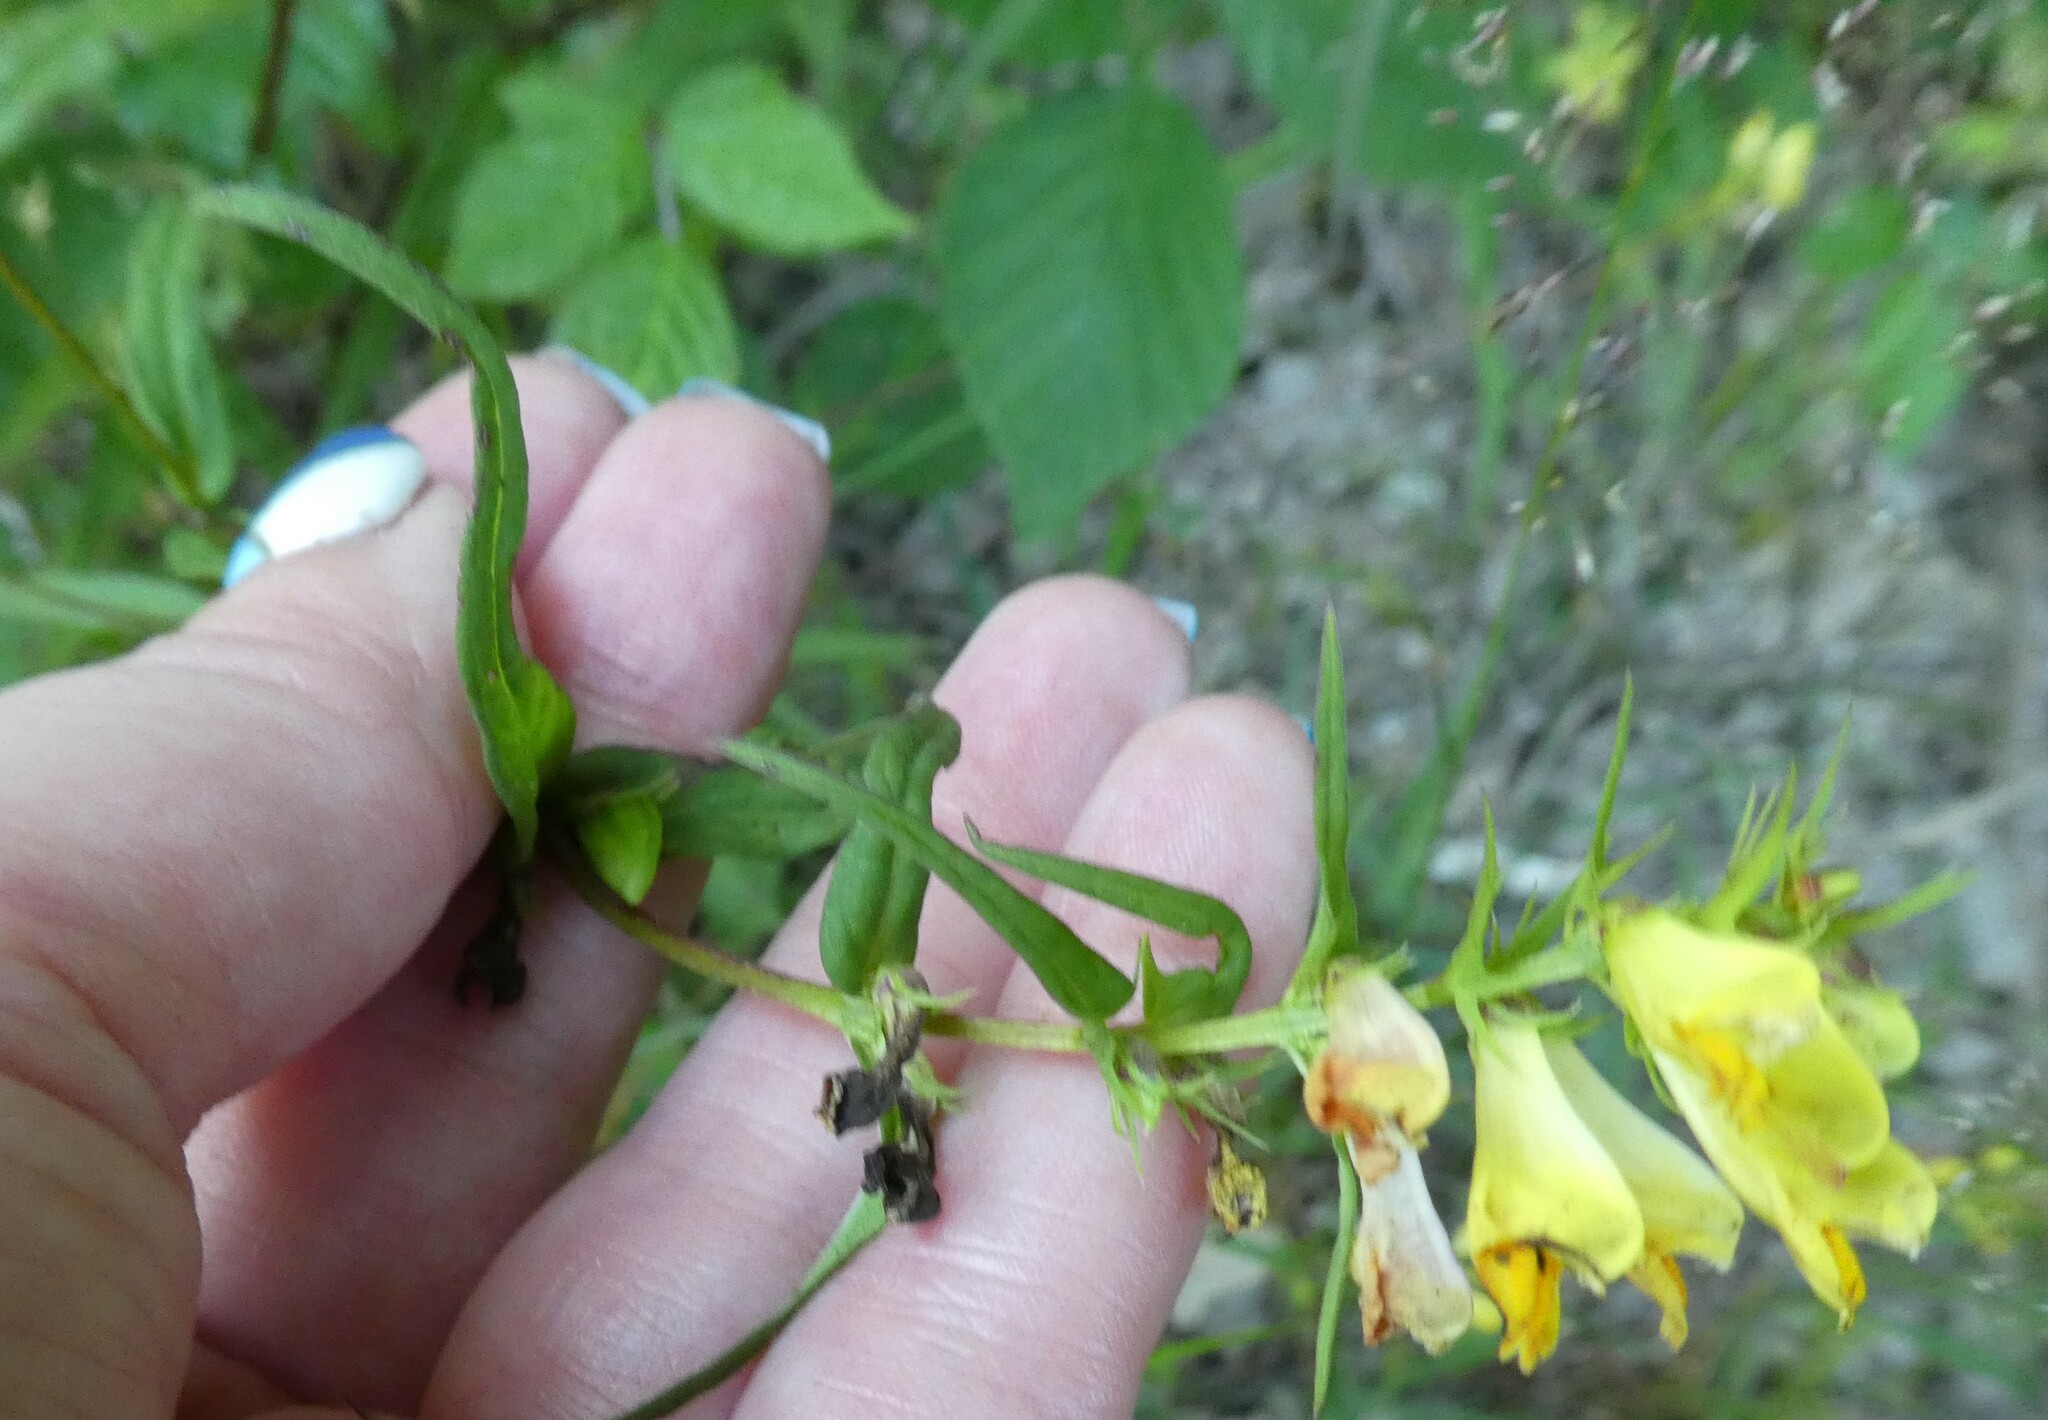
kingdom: Plantae
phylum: Tracheophyta
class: Magnoliopsida
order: Lamiales
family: Orobanchaceae
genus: Melampyrum
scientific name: Melampyrum pratense
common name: Common cow-wheat
